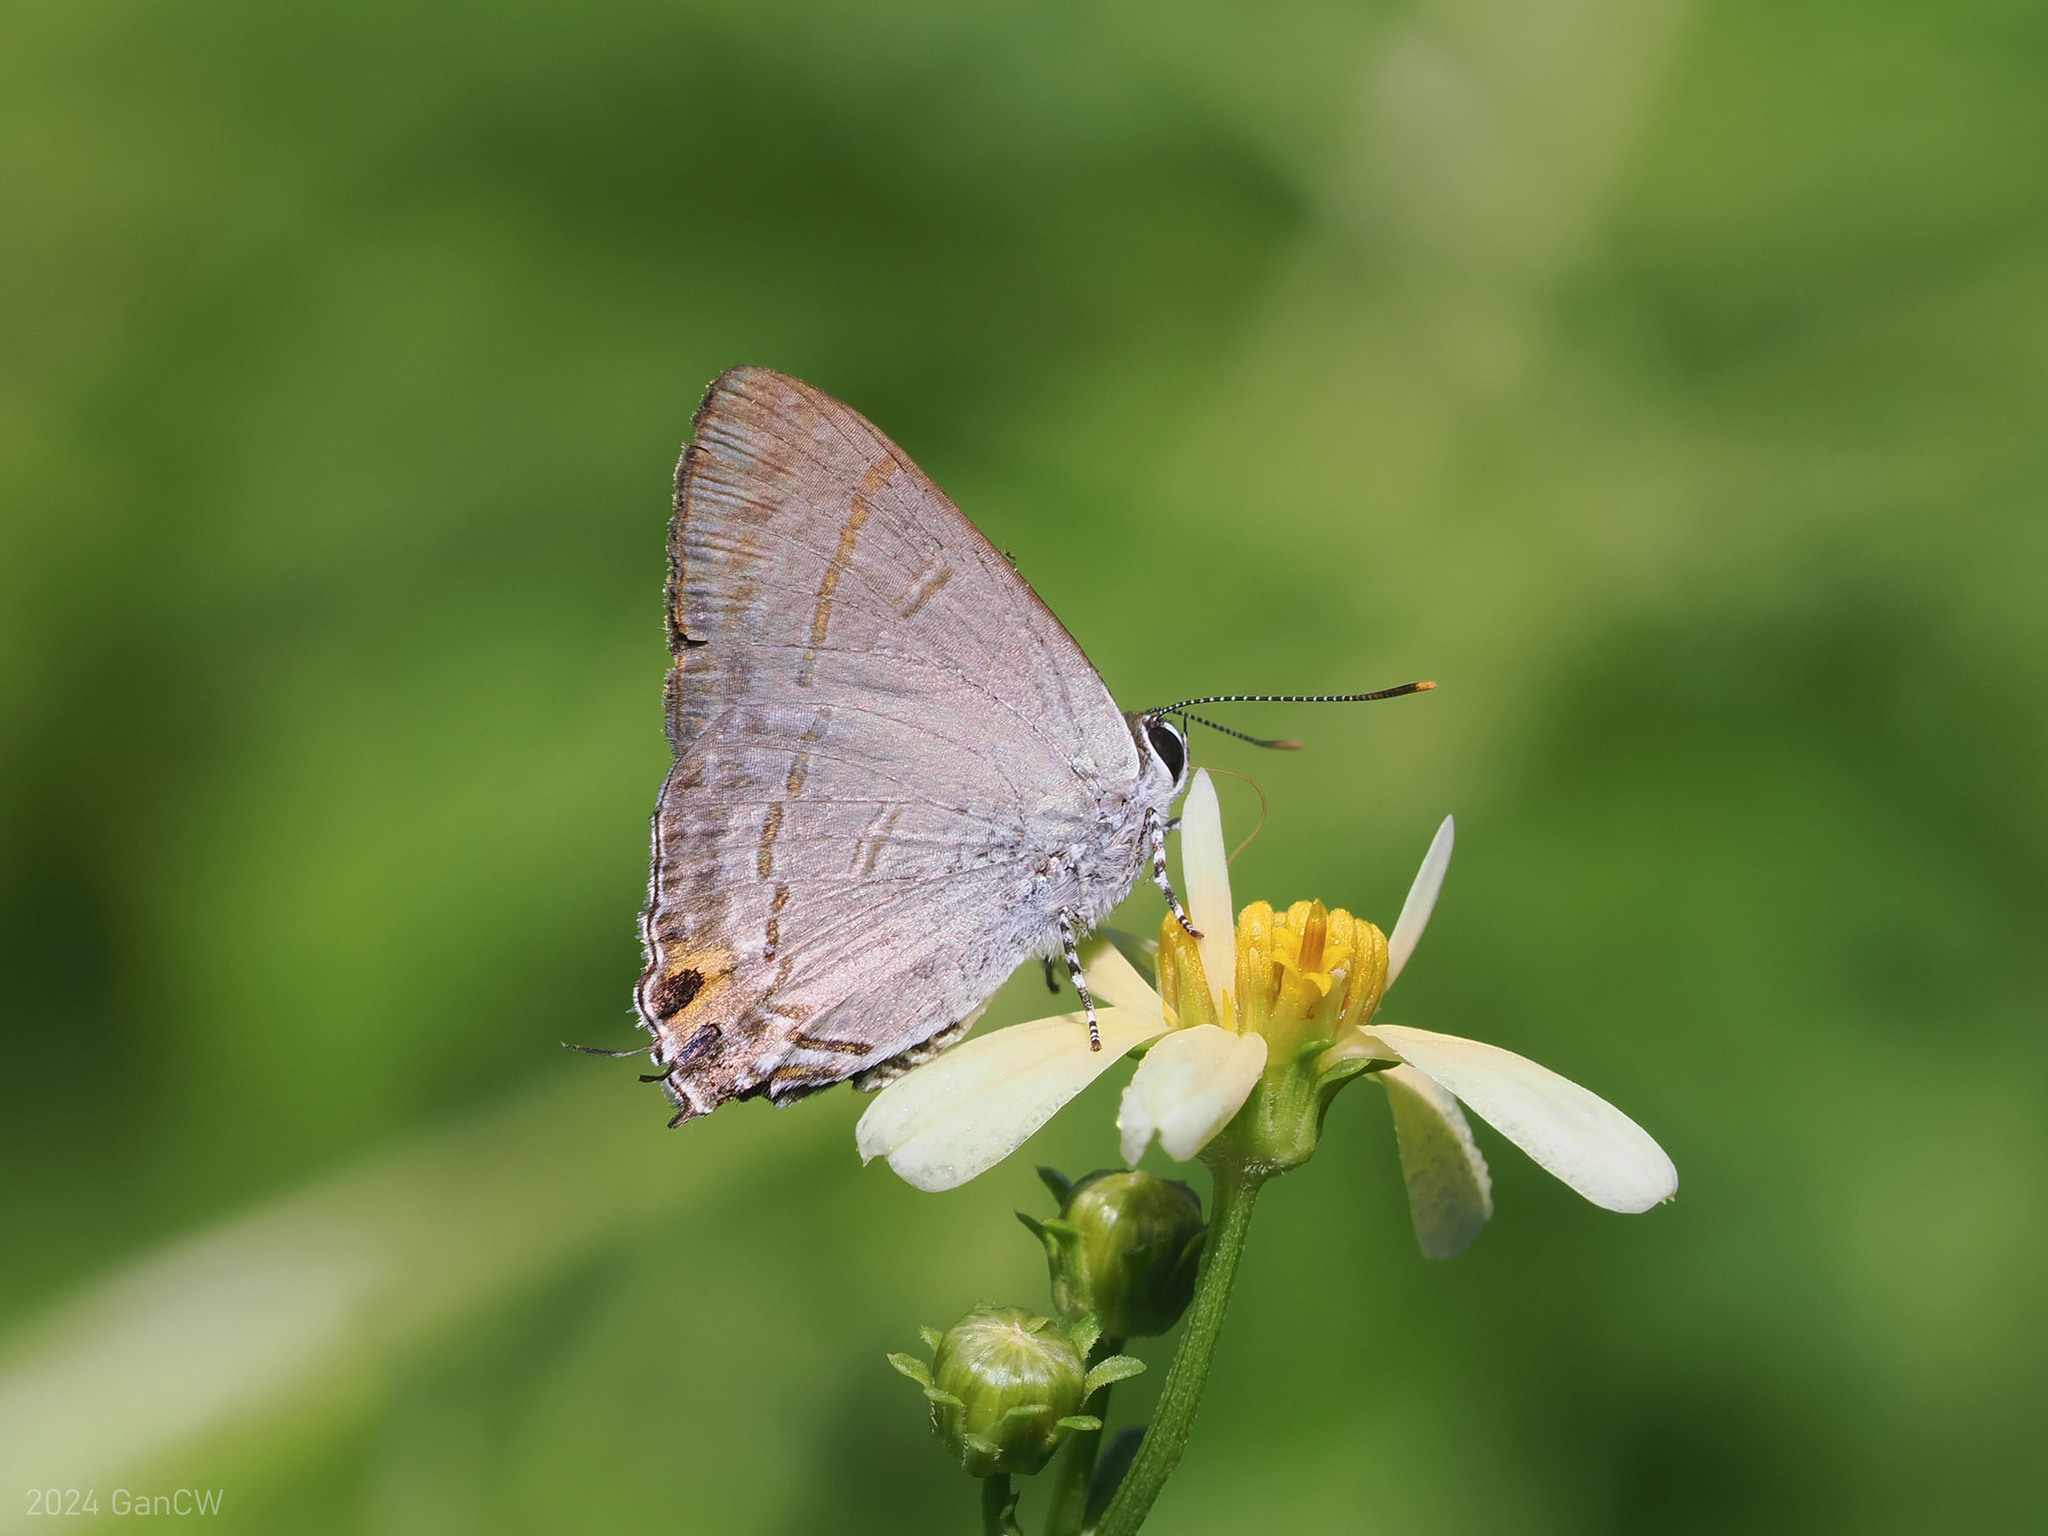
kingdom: Animalia
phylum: Arthropoda
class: Insecta
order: Lepidoptera
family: Lycaenidae
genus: Hypolycaena
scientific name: Hypolycaena erylus
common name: Common tit
